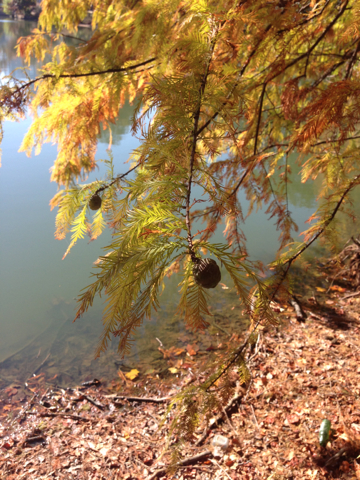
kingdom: Plantae
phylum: Tracheophyta
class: Pinopsida
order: Pinales
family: Cupressaceae
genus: Taxodium
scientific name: Taxodium distichum
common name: Bald cypress
